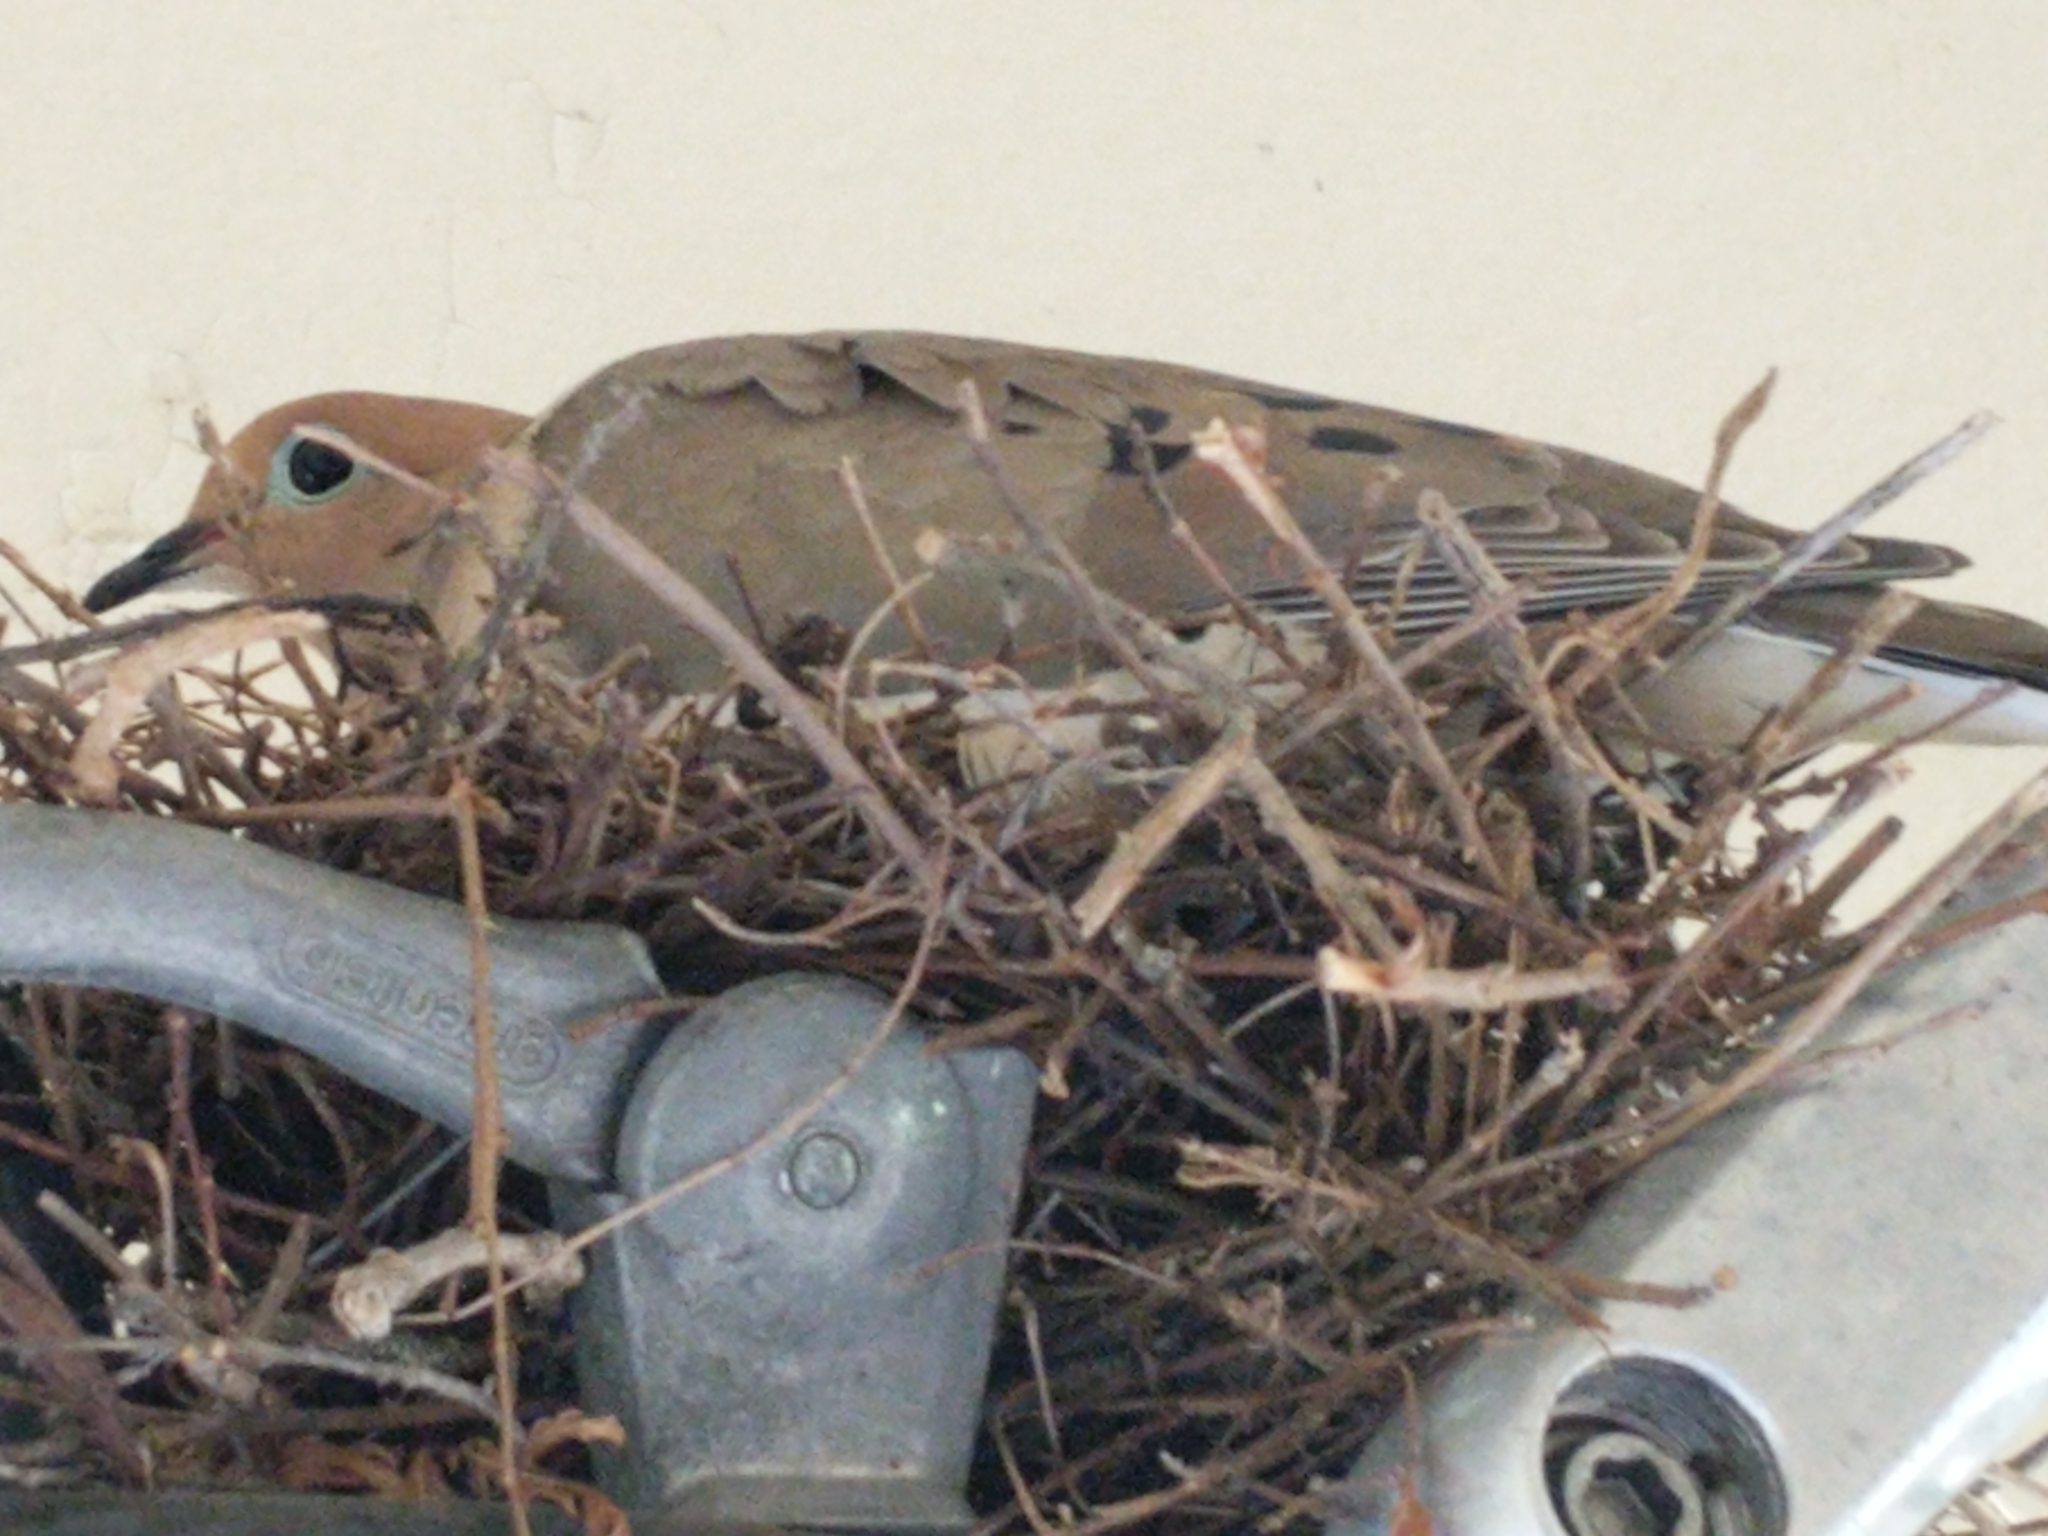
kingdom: Animalia
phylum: Chordata
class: Aves
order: Columbiformes
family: Columbidae
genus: Zenaida
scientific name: Zenaida macroura
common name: Mourning dove
